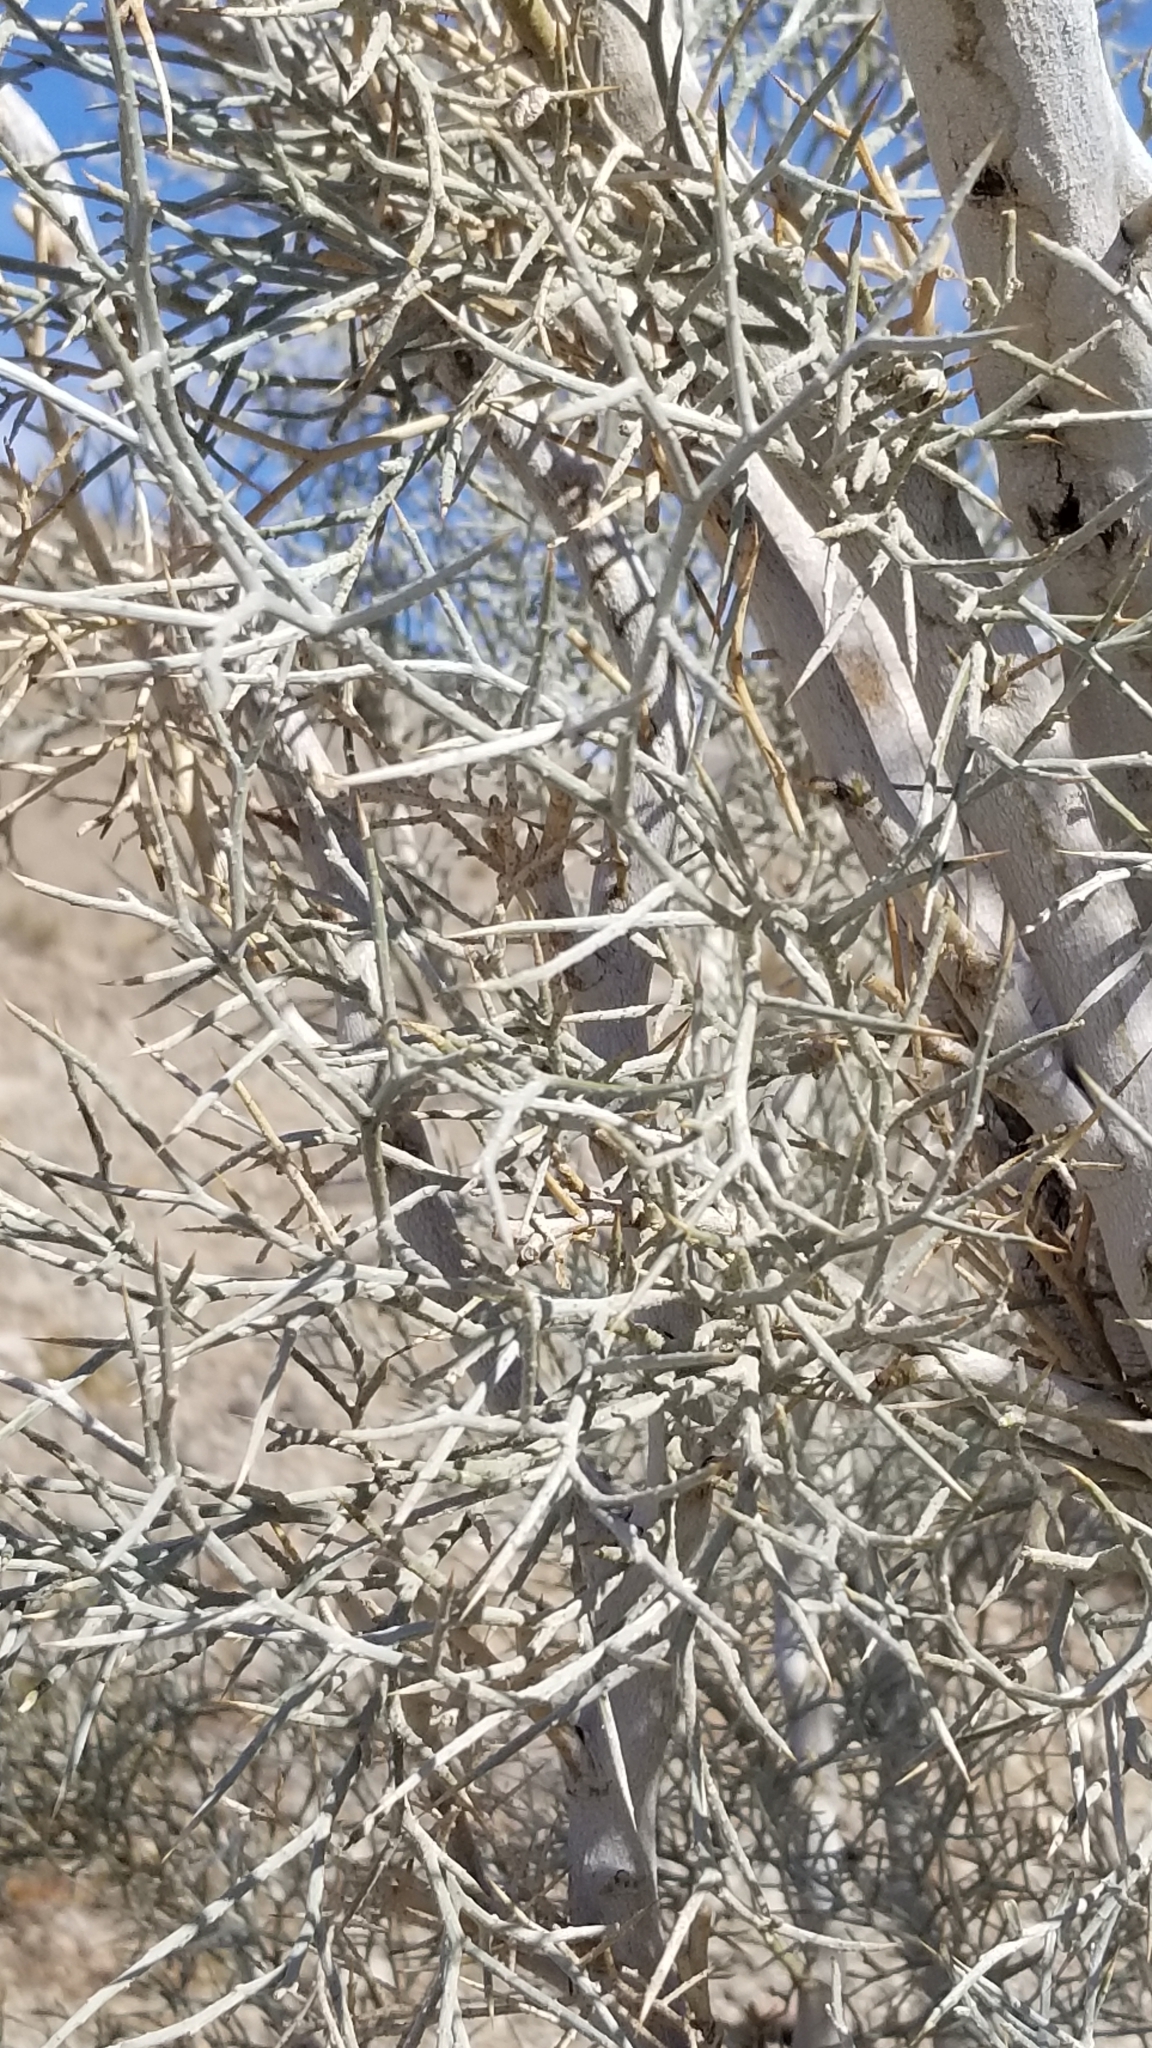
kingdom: Plantae
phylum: Tracheophyta
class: Magnoliopsida
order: Fabales
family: Fabaceae
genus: Psorothamnus
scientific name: Psorothamnus spinosus
